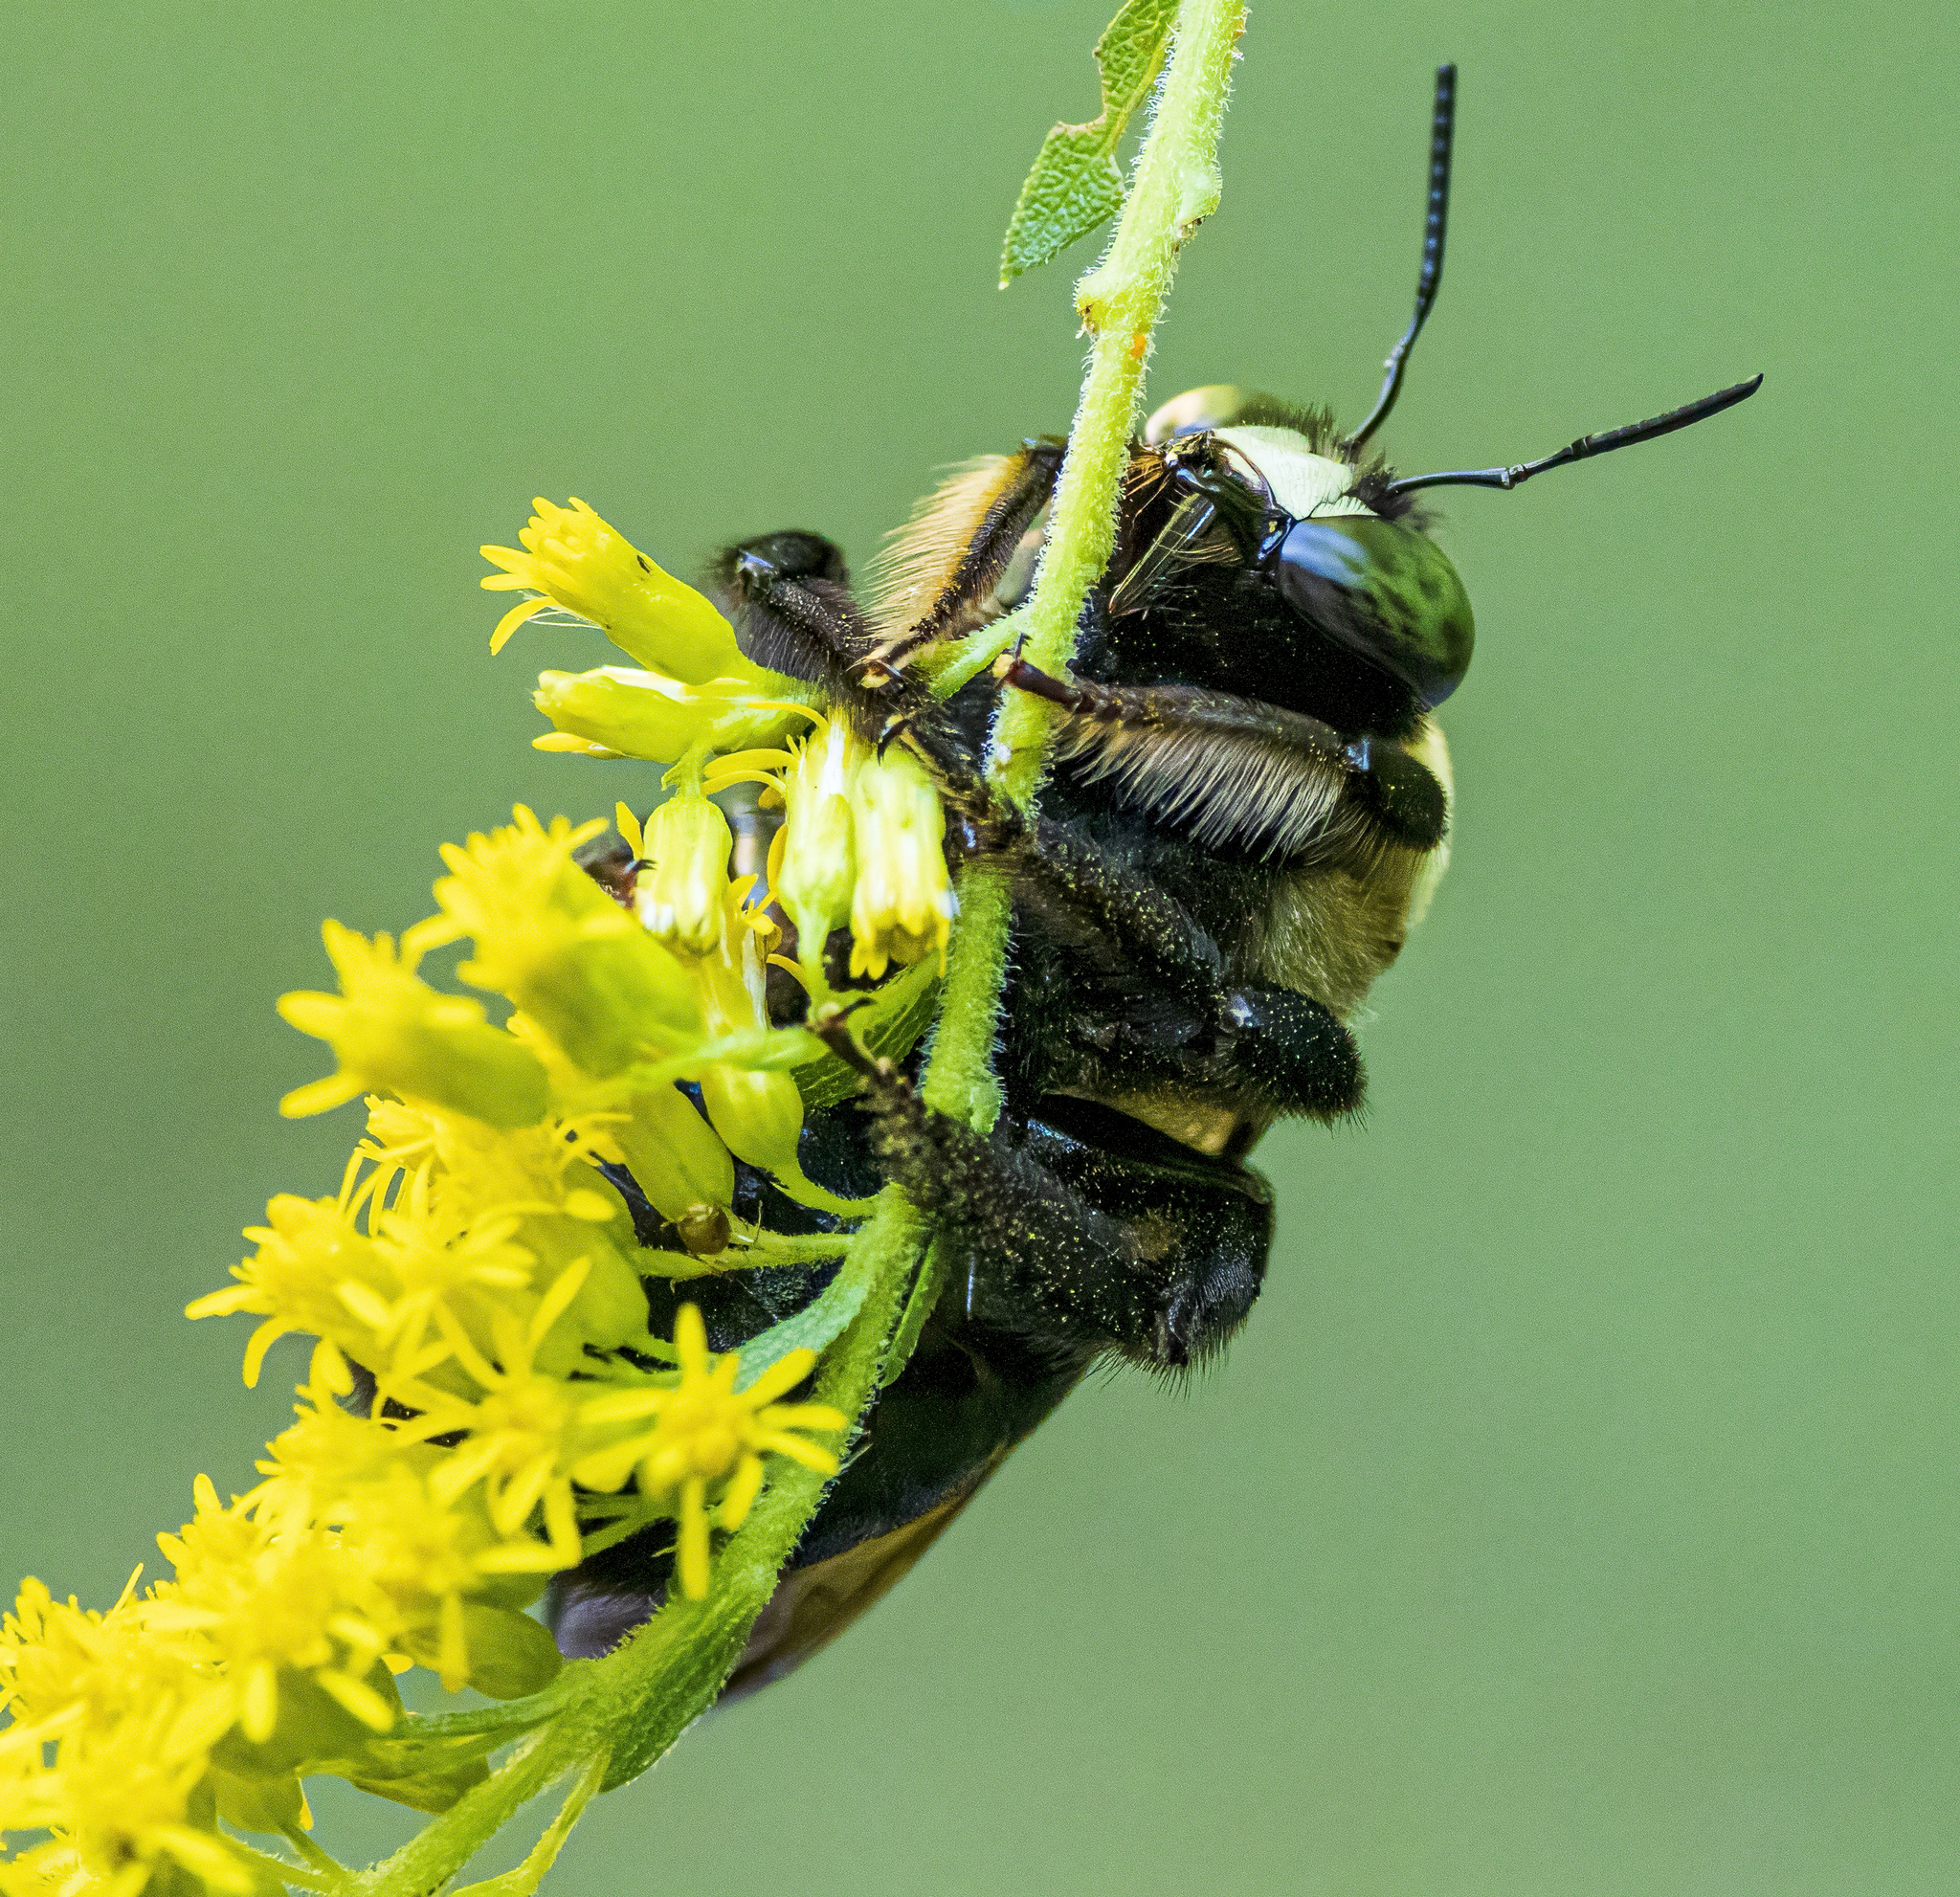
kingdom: Animalia
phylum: Arthropoda
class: Insecta
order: Hymenoptera
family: Apidae
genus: Xylocopa
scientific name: Xylocopa virginica
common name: Carpenter bee
